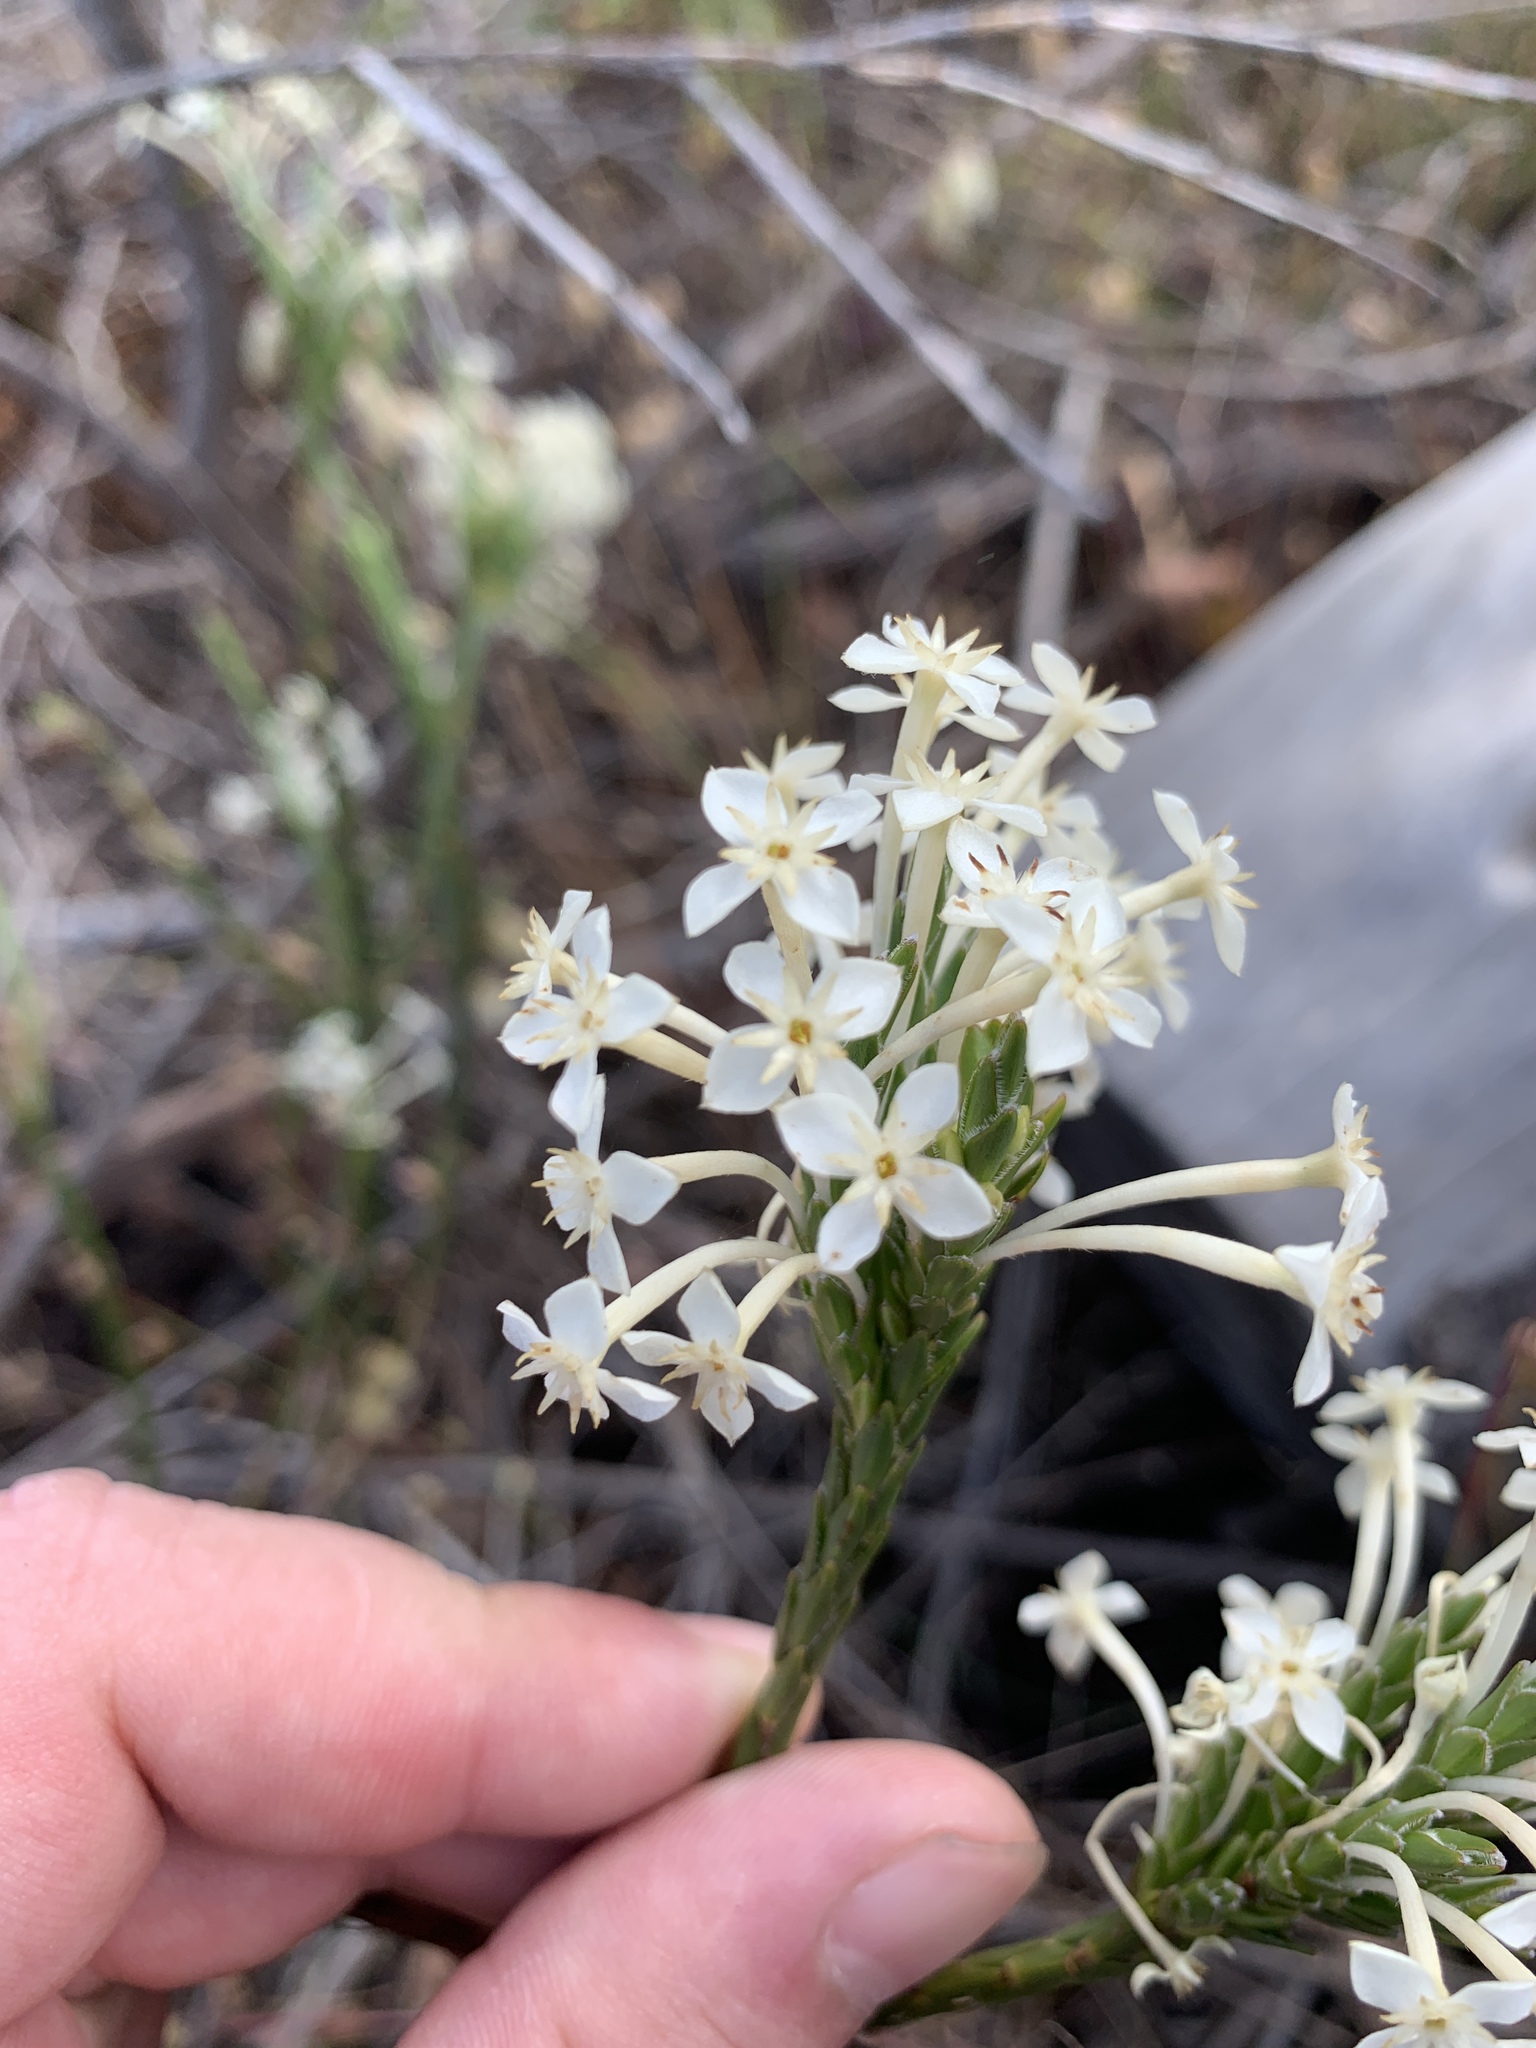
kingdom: Plantae
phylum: Tracheophyta
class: Magnoliopsida
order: Malvales
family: Thymelaeaceae
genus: Struthiola
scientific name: Struthiola myrsinites
